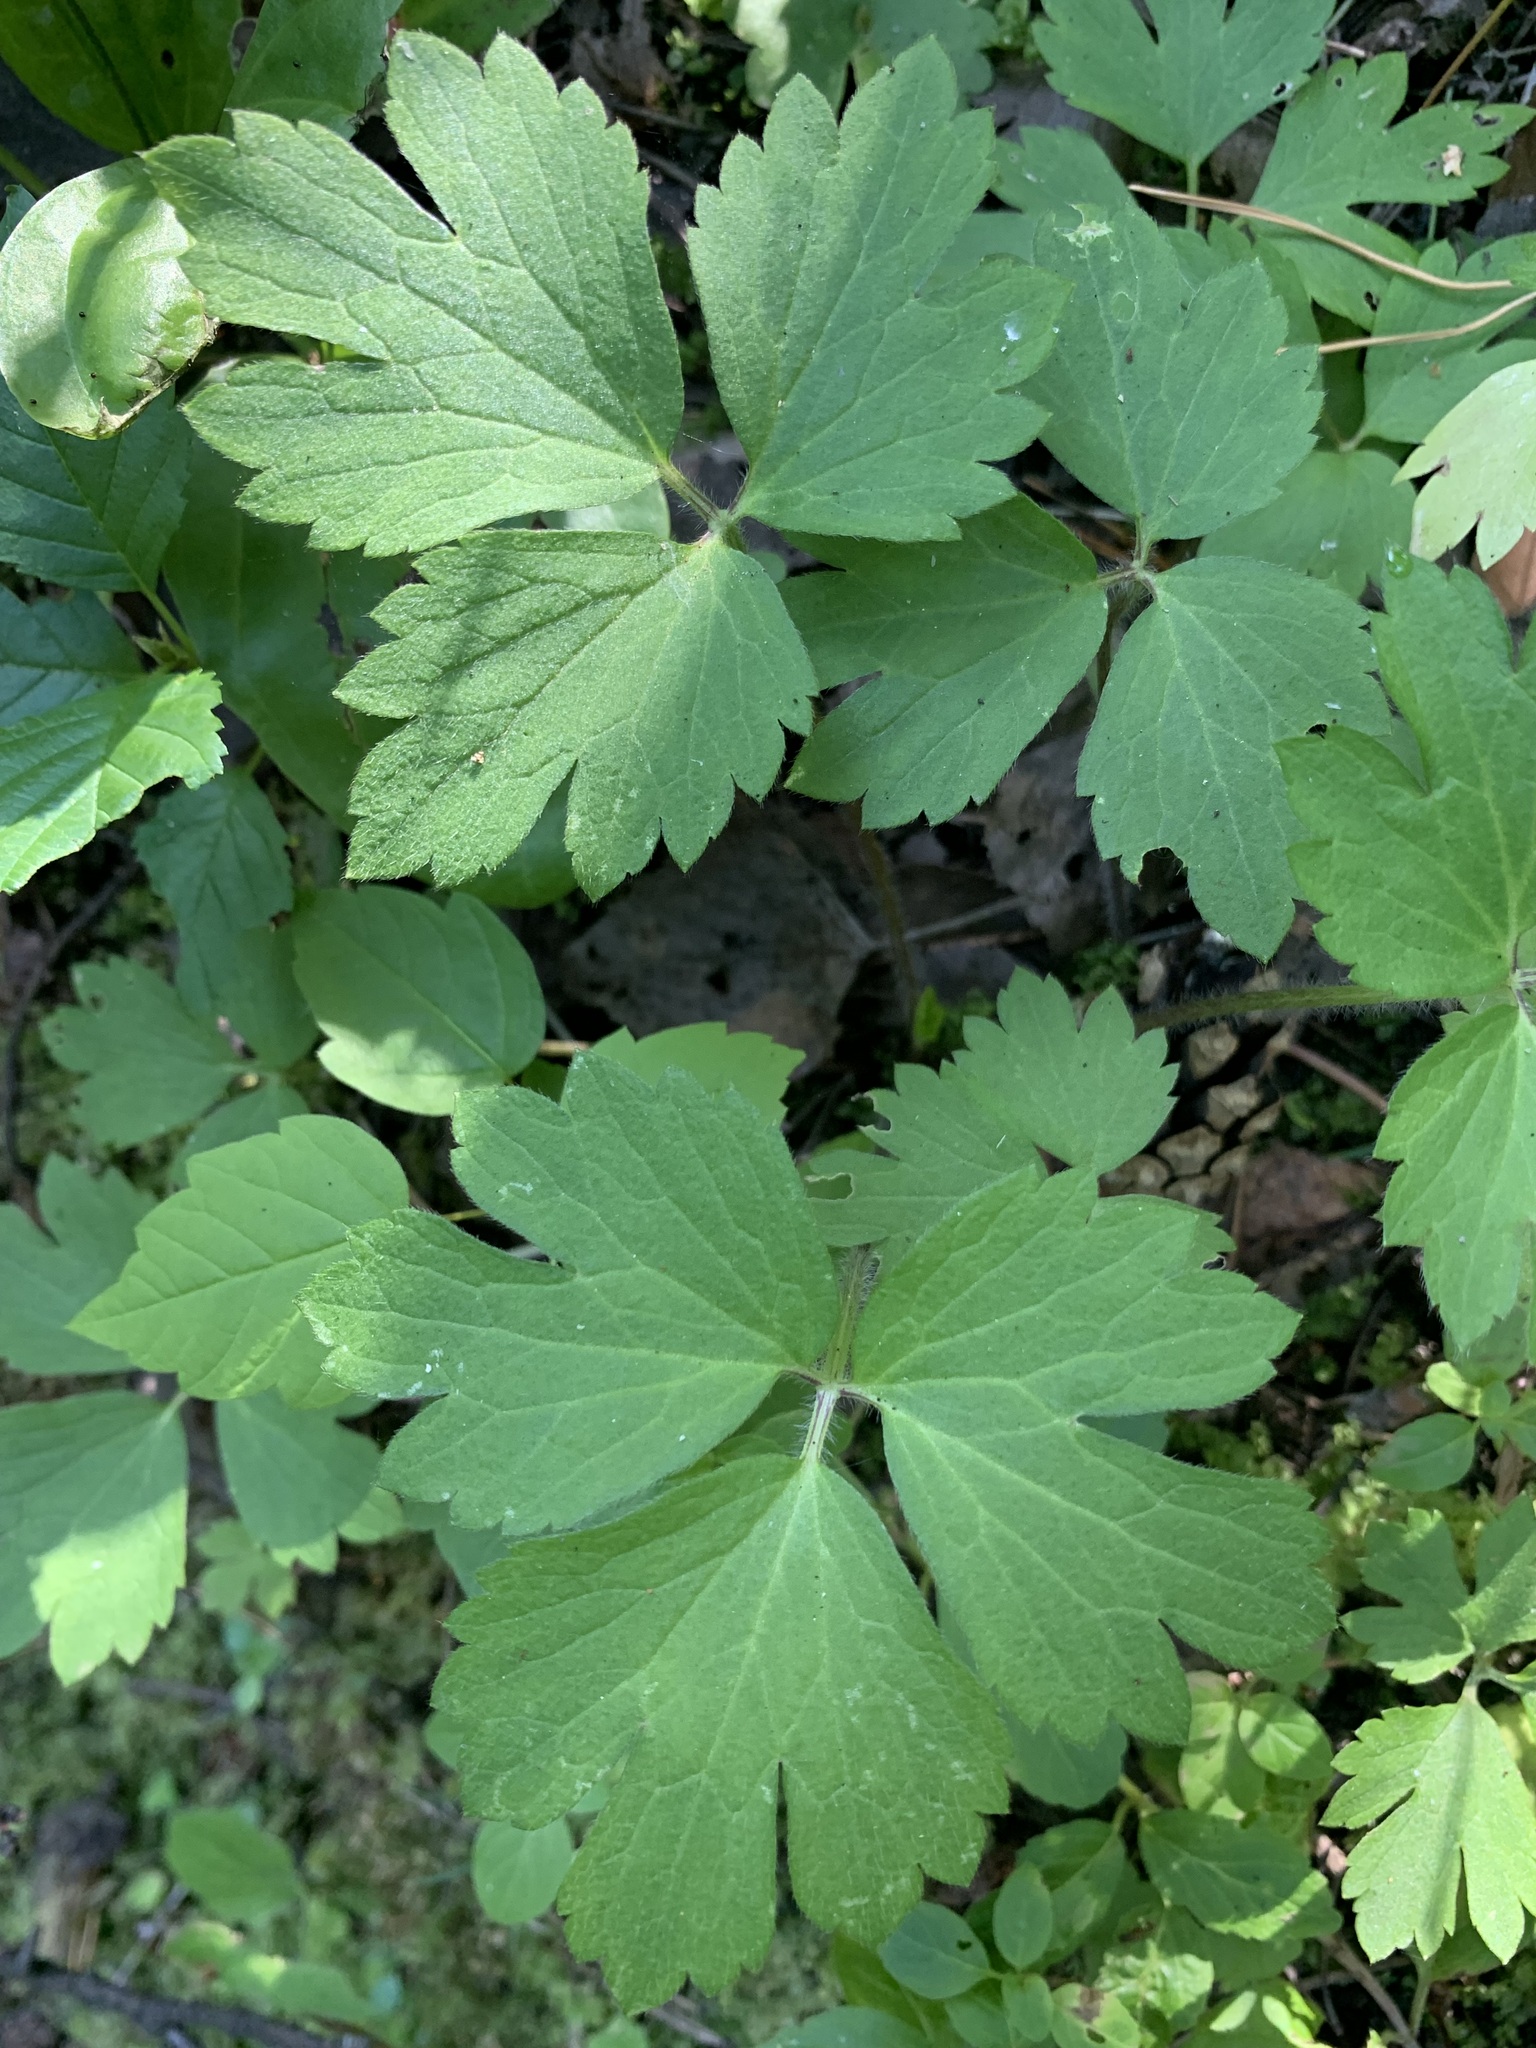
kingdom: Plantae
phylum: Tracheophyta
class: Magnoliopsida
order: Ranunculales
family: Ranunculaceae
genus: Ranunculus
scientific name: Ranunculus repens
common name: Creeping buttercup
